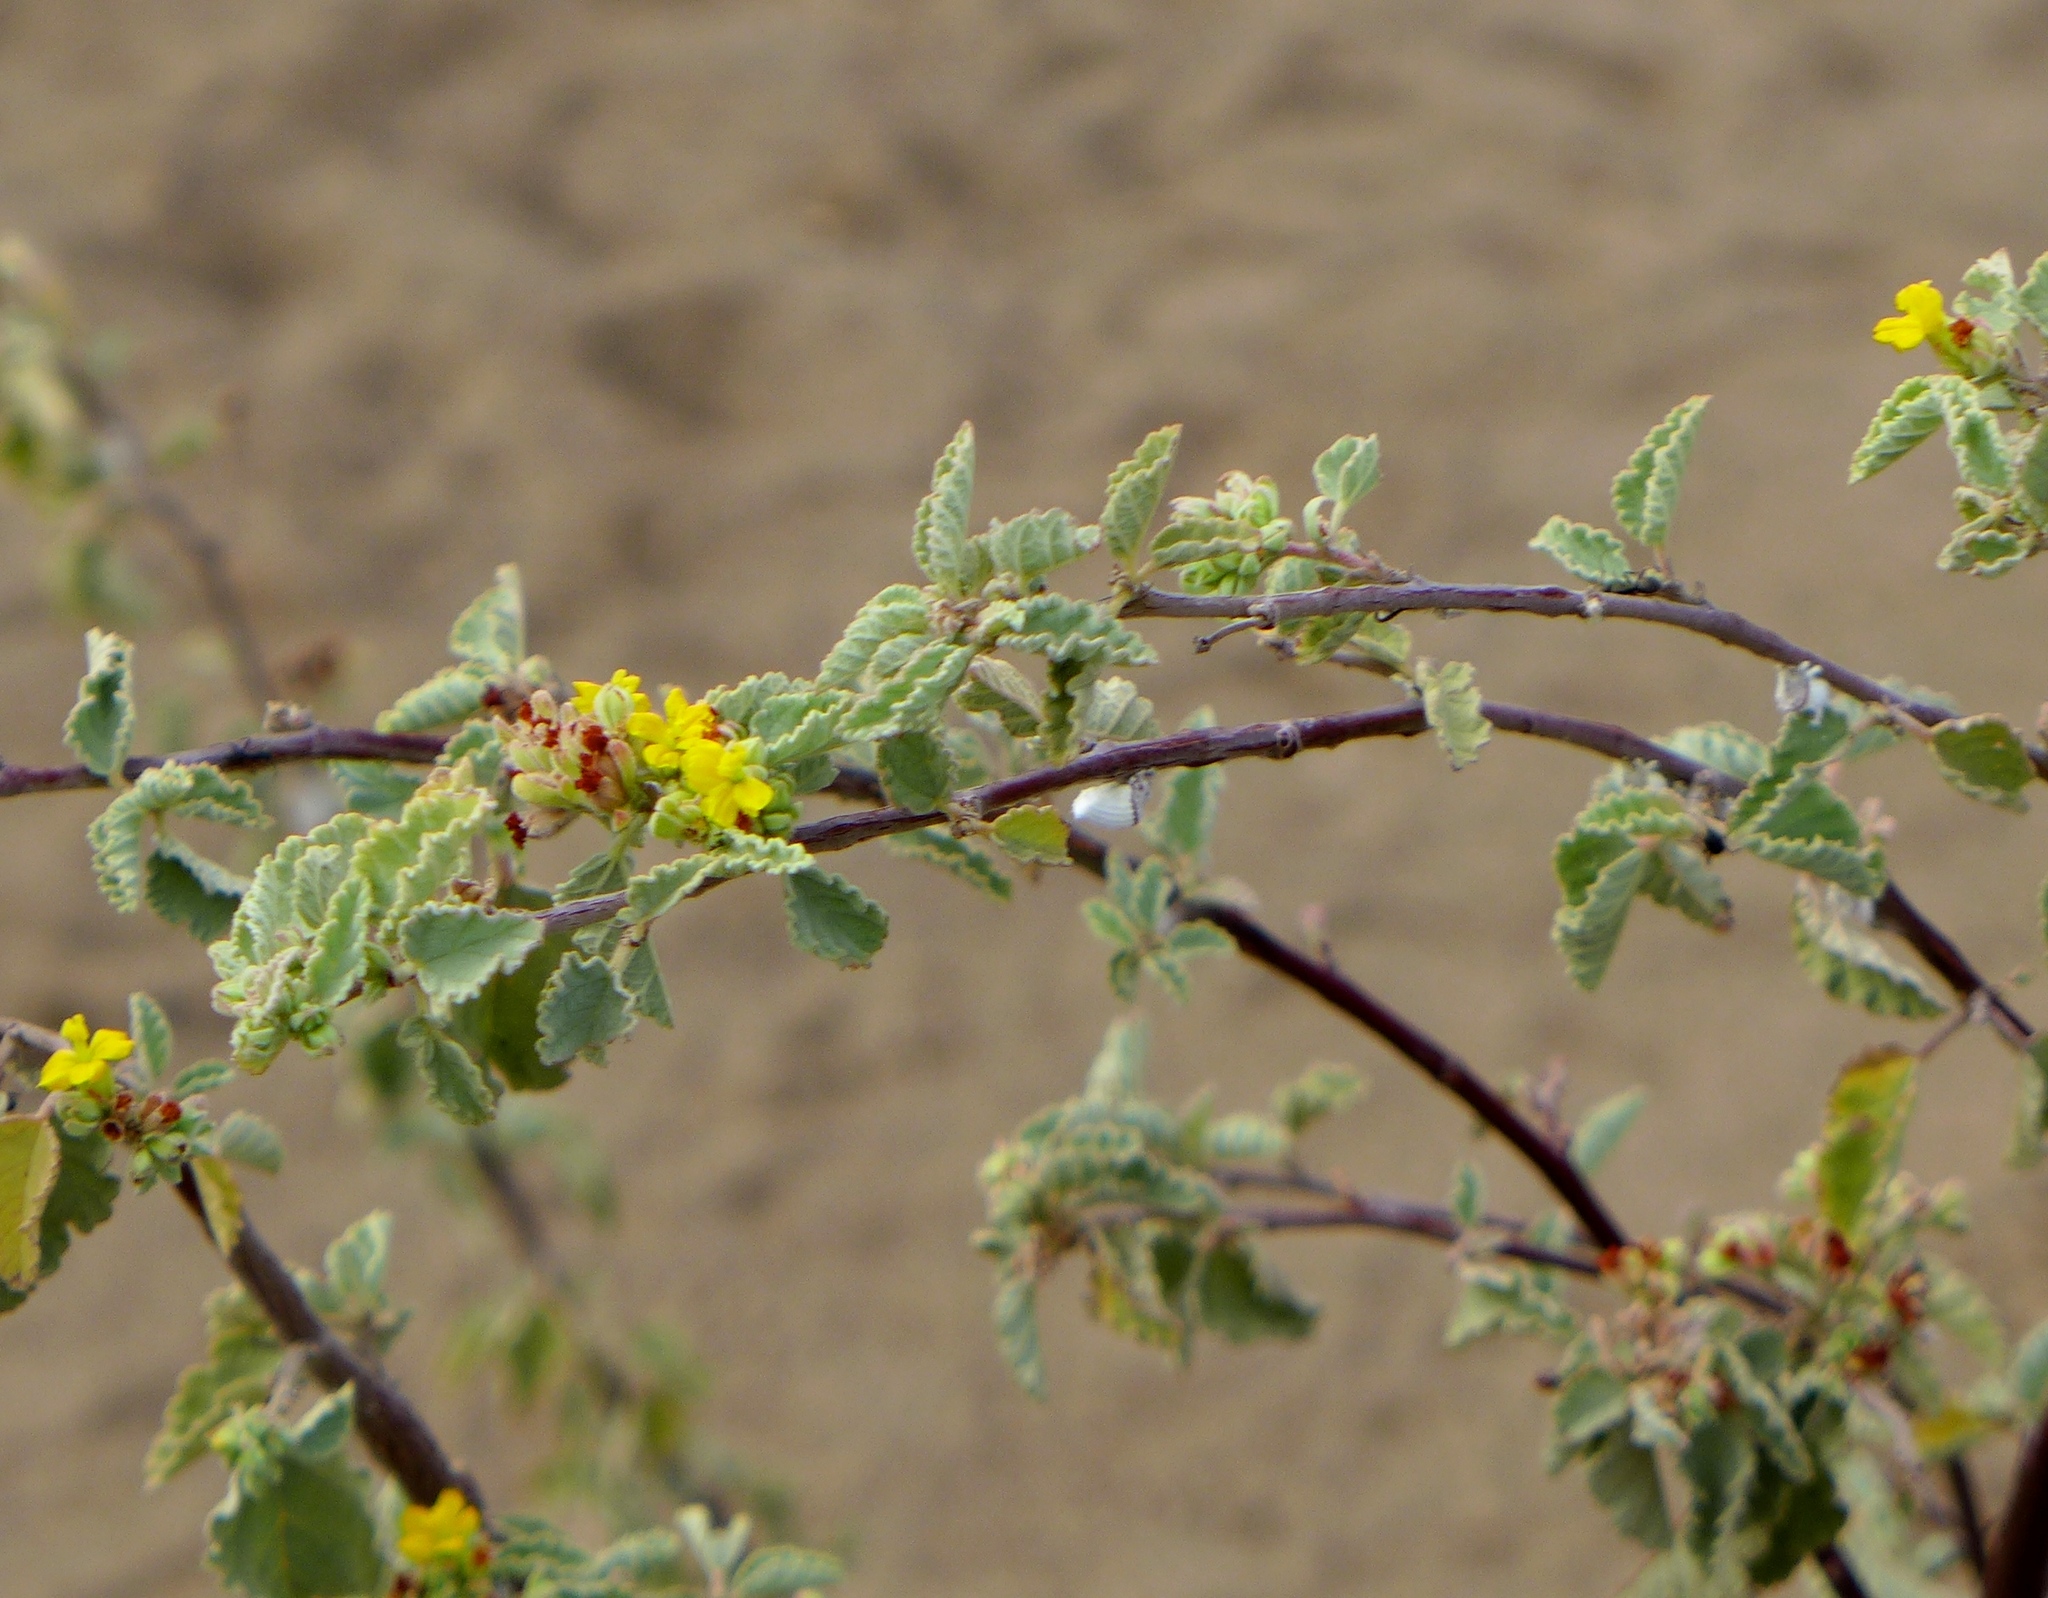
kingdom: Plantae
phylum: Tracheophyta
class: Magnoliopsida
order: Malvales
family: Malvaceae
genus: Waltheria
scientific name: Waltheria ovata
